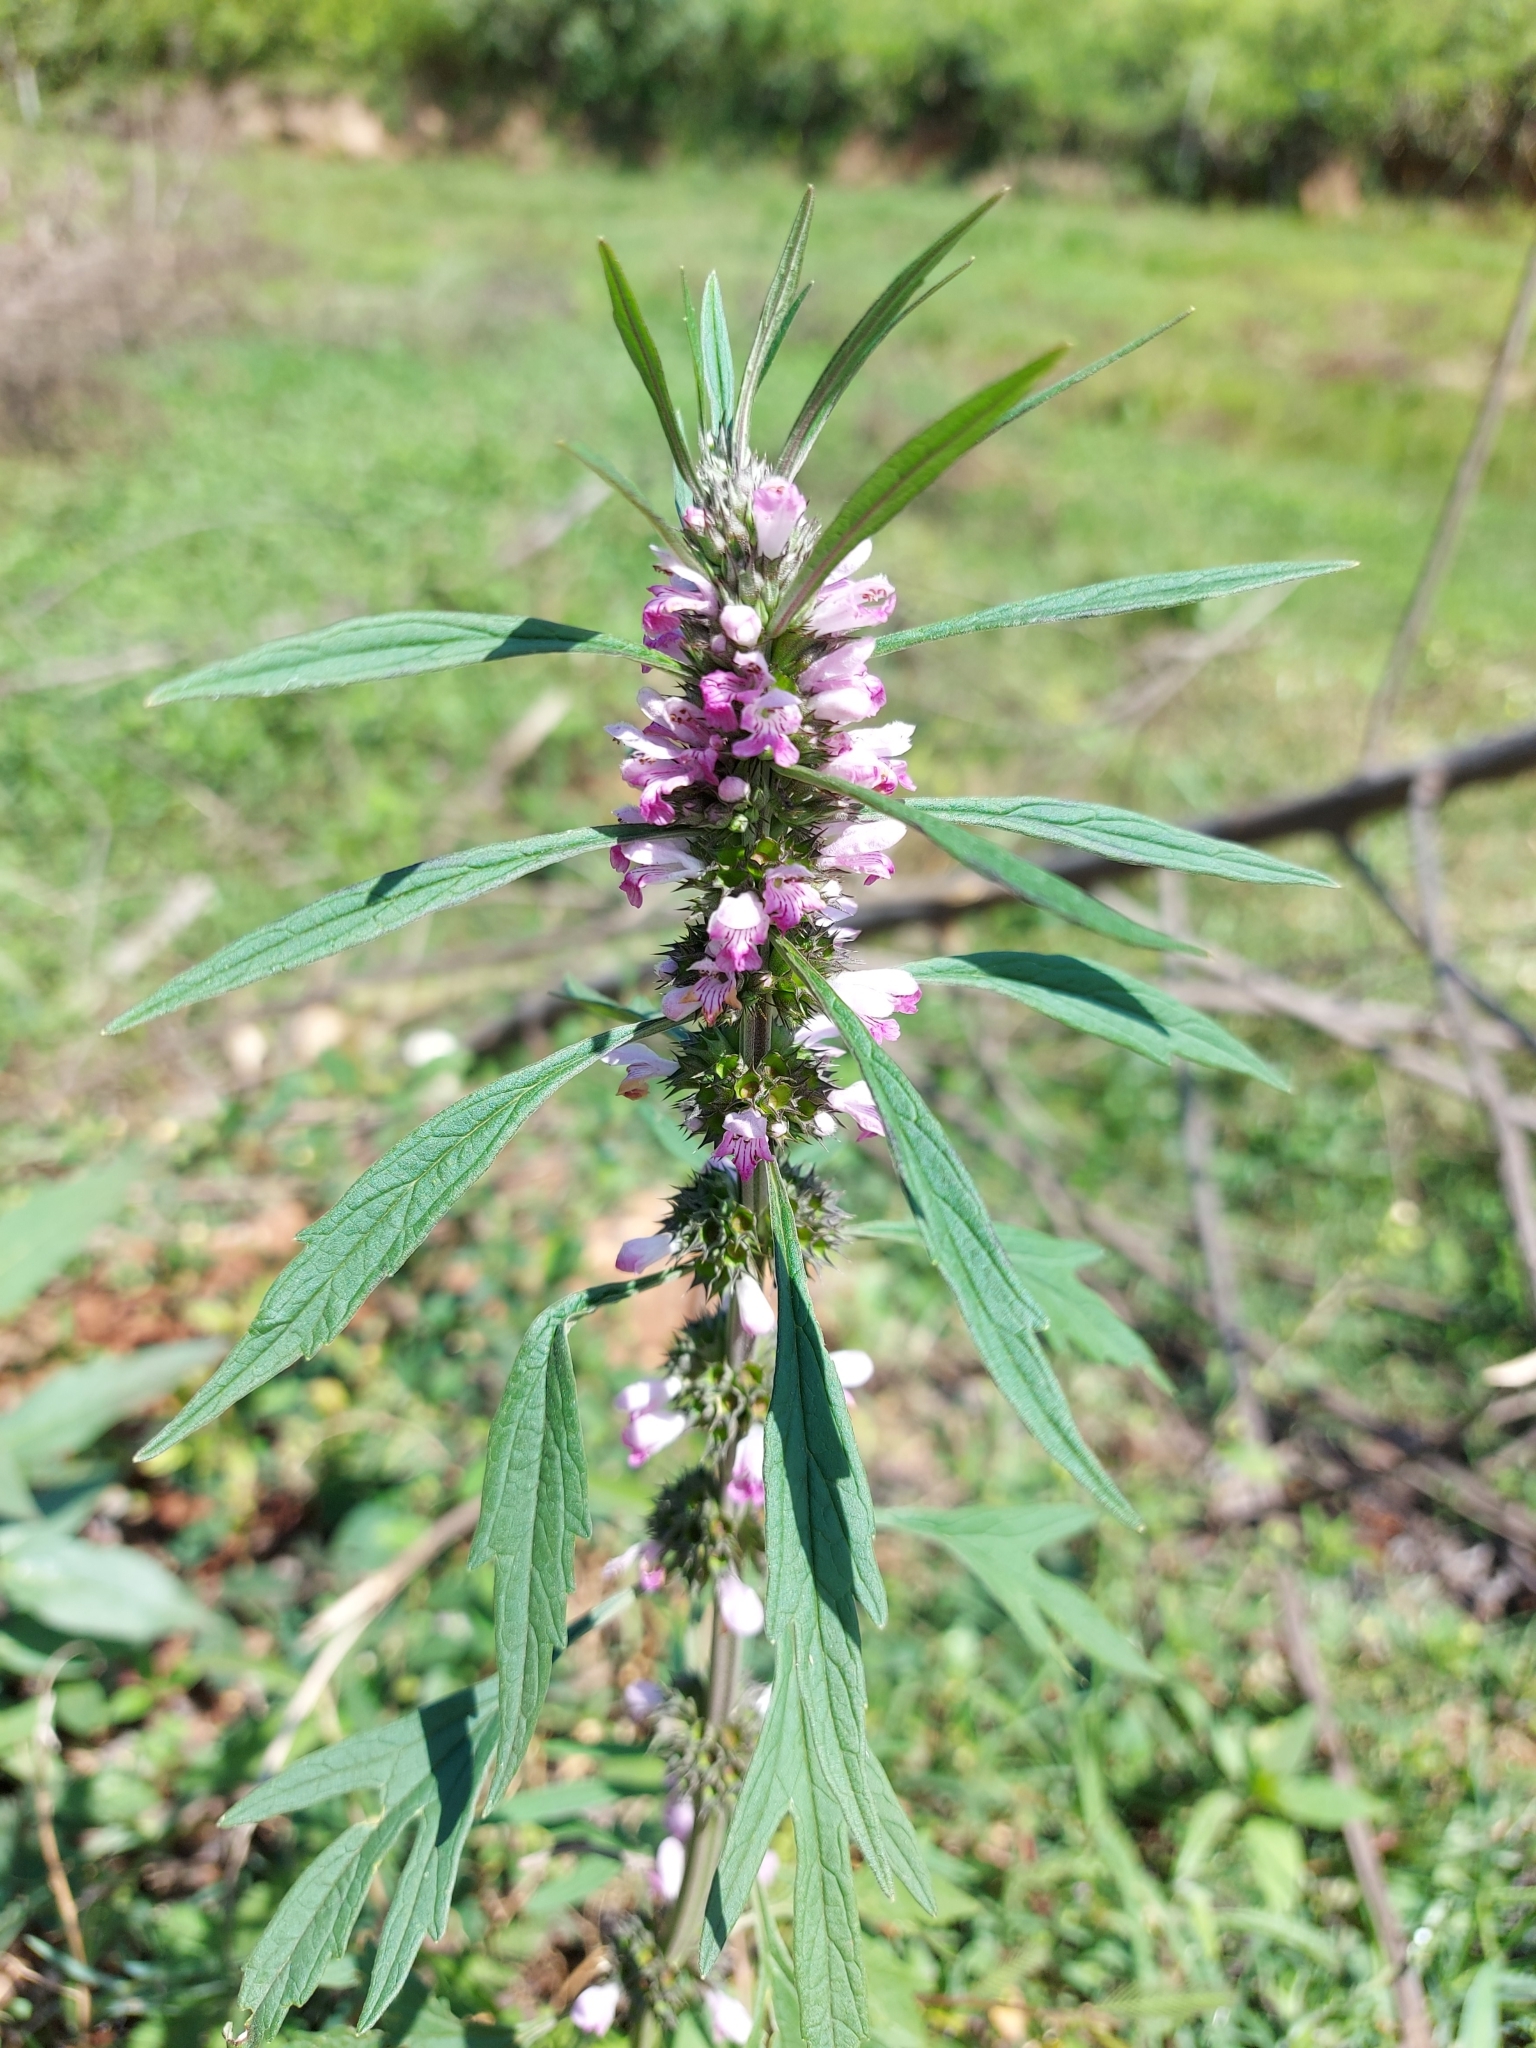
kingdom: Plantae
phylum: Tracheophyta
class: Magnoliopsida
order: Lamiales
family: Lamiaceae
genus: Leonurus
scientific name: Leonurus japonicus
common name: Honeyweed
